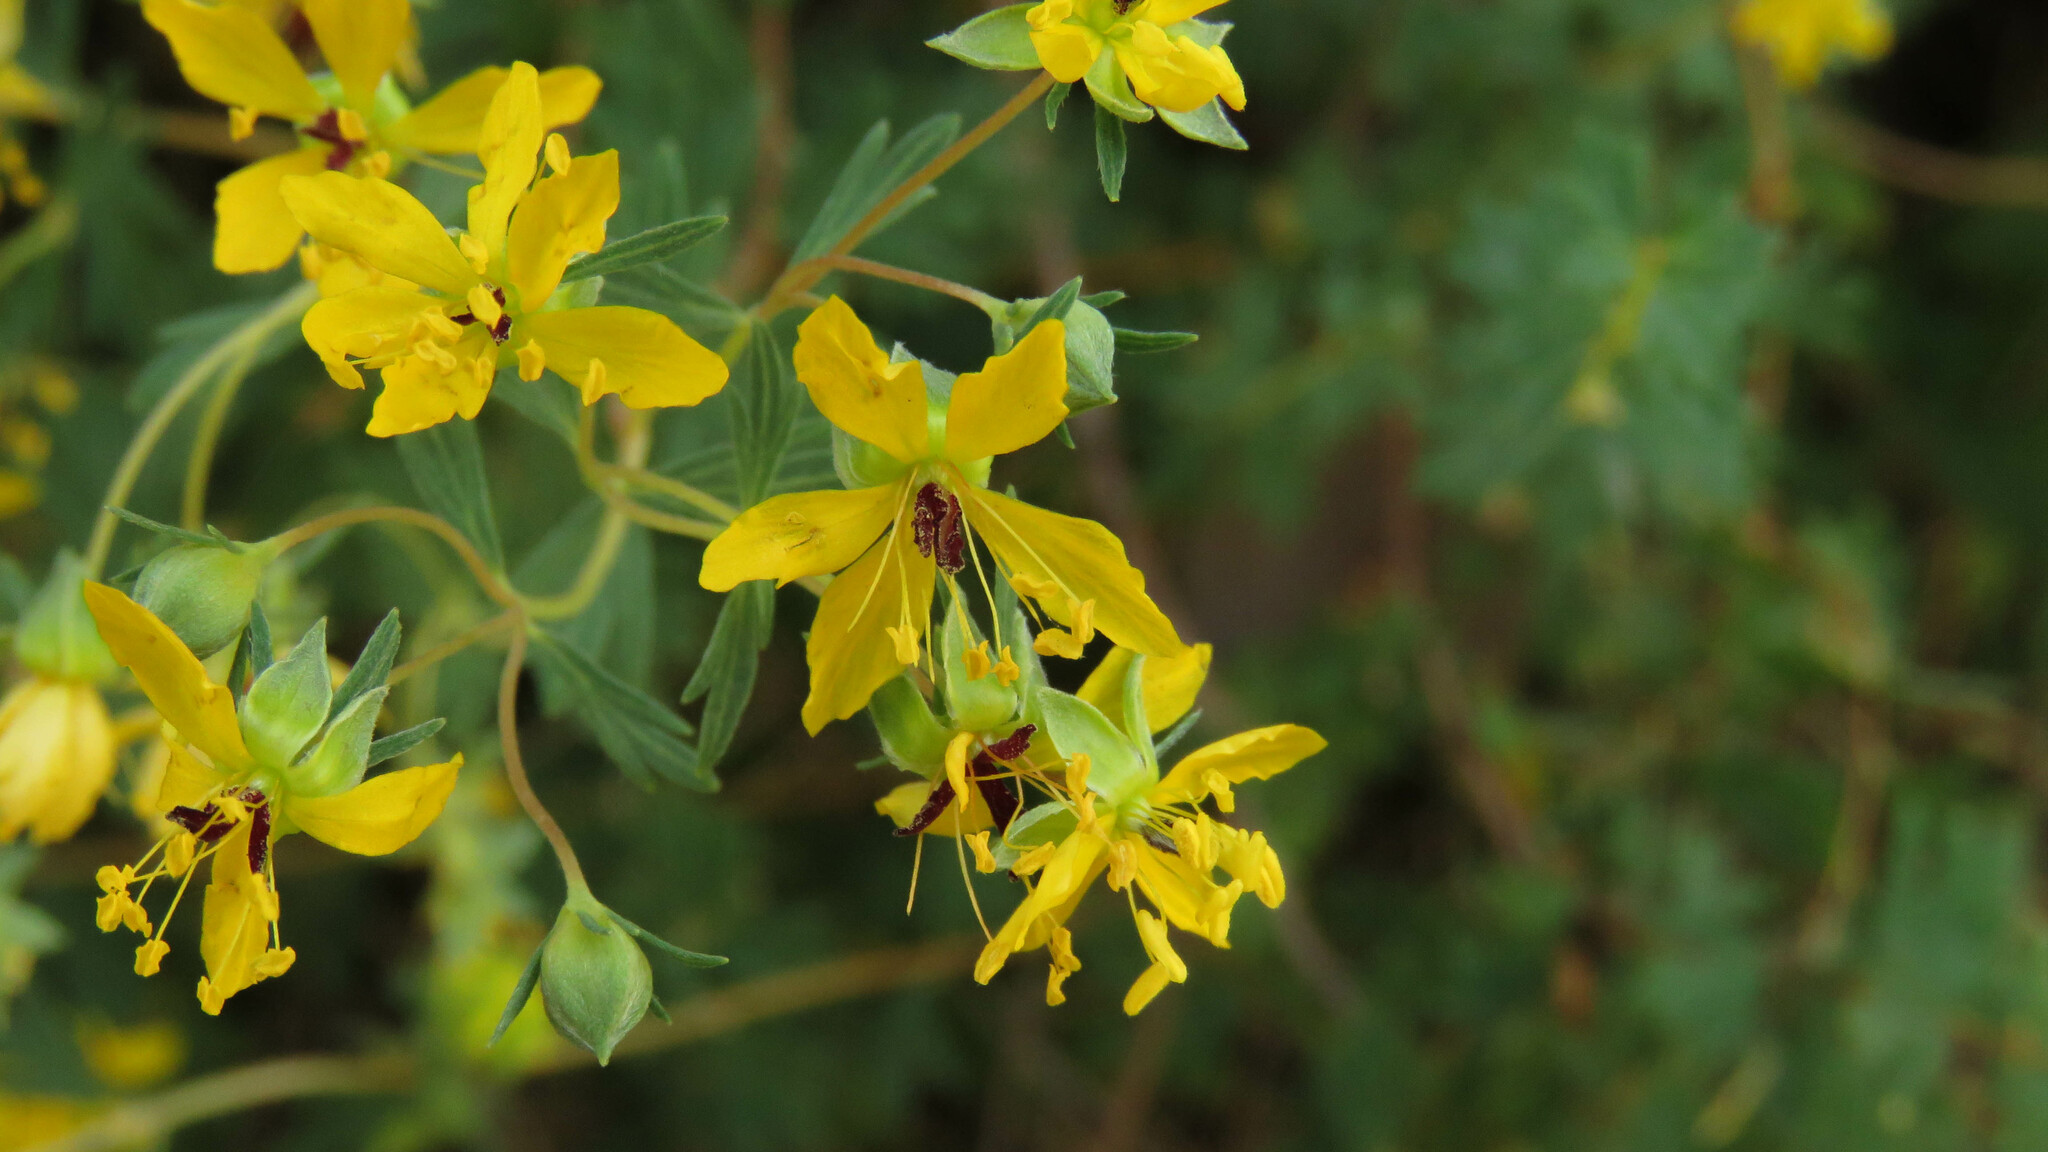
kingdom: Plantae
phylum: Tracheophyta
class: Magnoliopsida
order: Geraniales
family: Vivianiaceae
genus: Wendtia
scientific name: Wendtia gracilis
